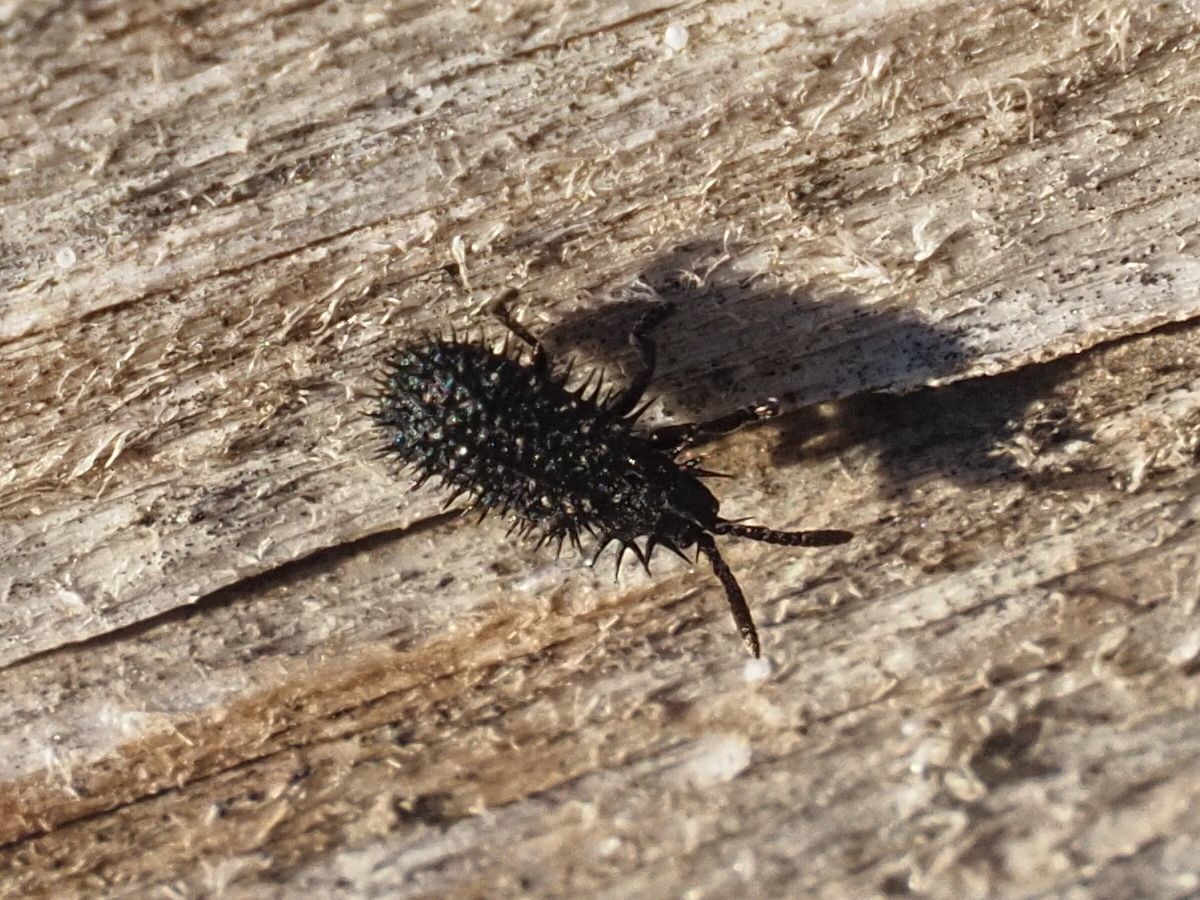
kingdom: Animalia
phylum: Arthropoda
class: Insecta
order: Coleoptera
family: Chrysomelidae
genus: Hispa
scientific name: Hispa atra
